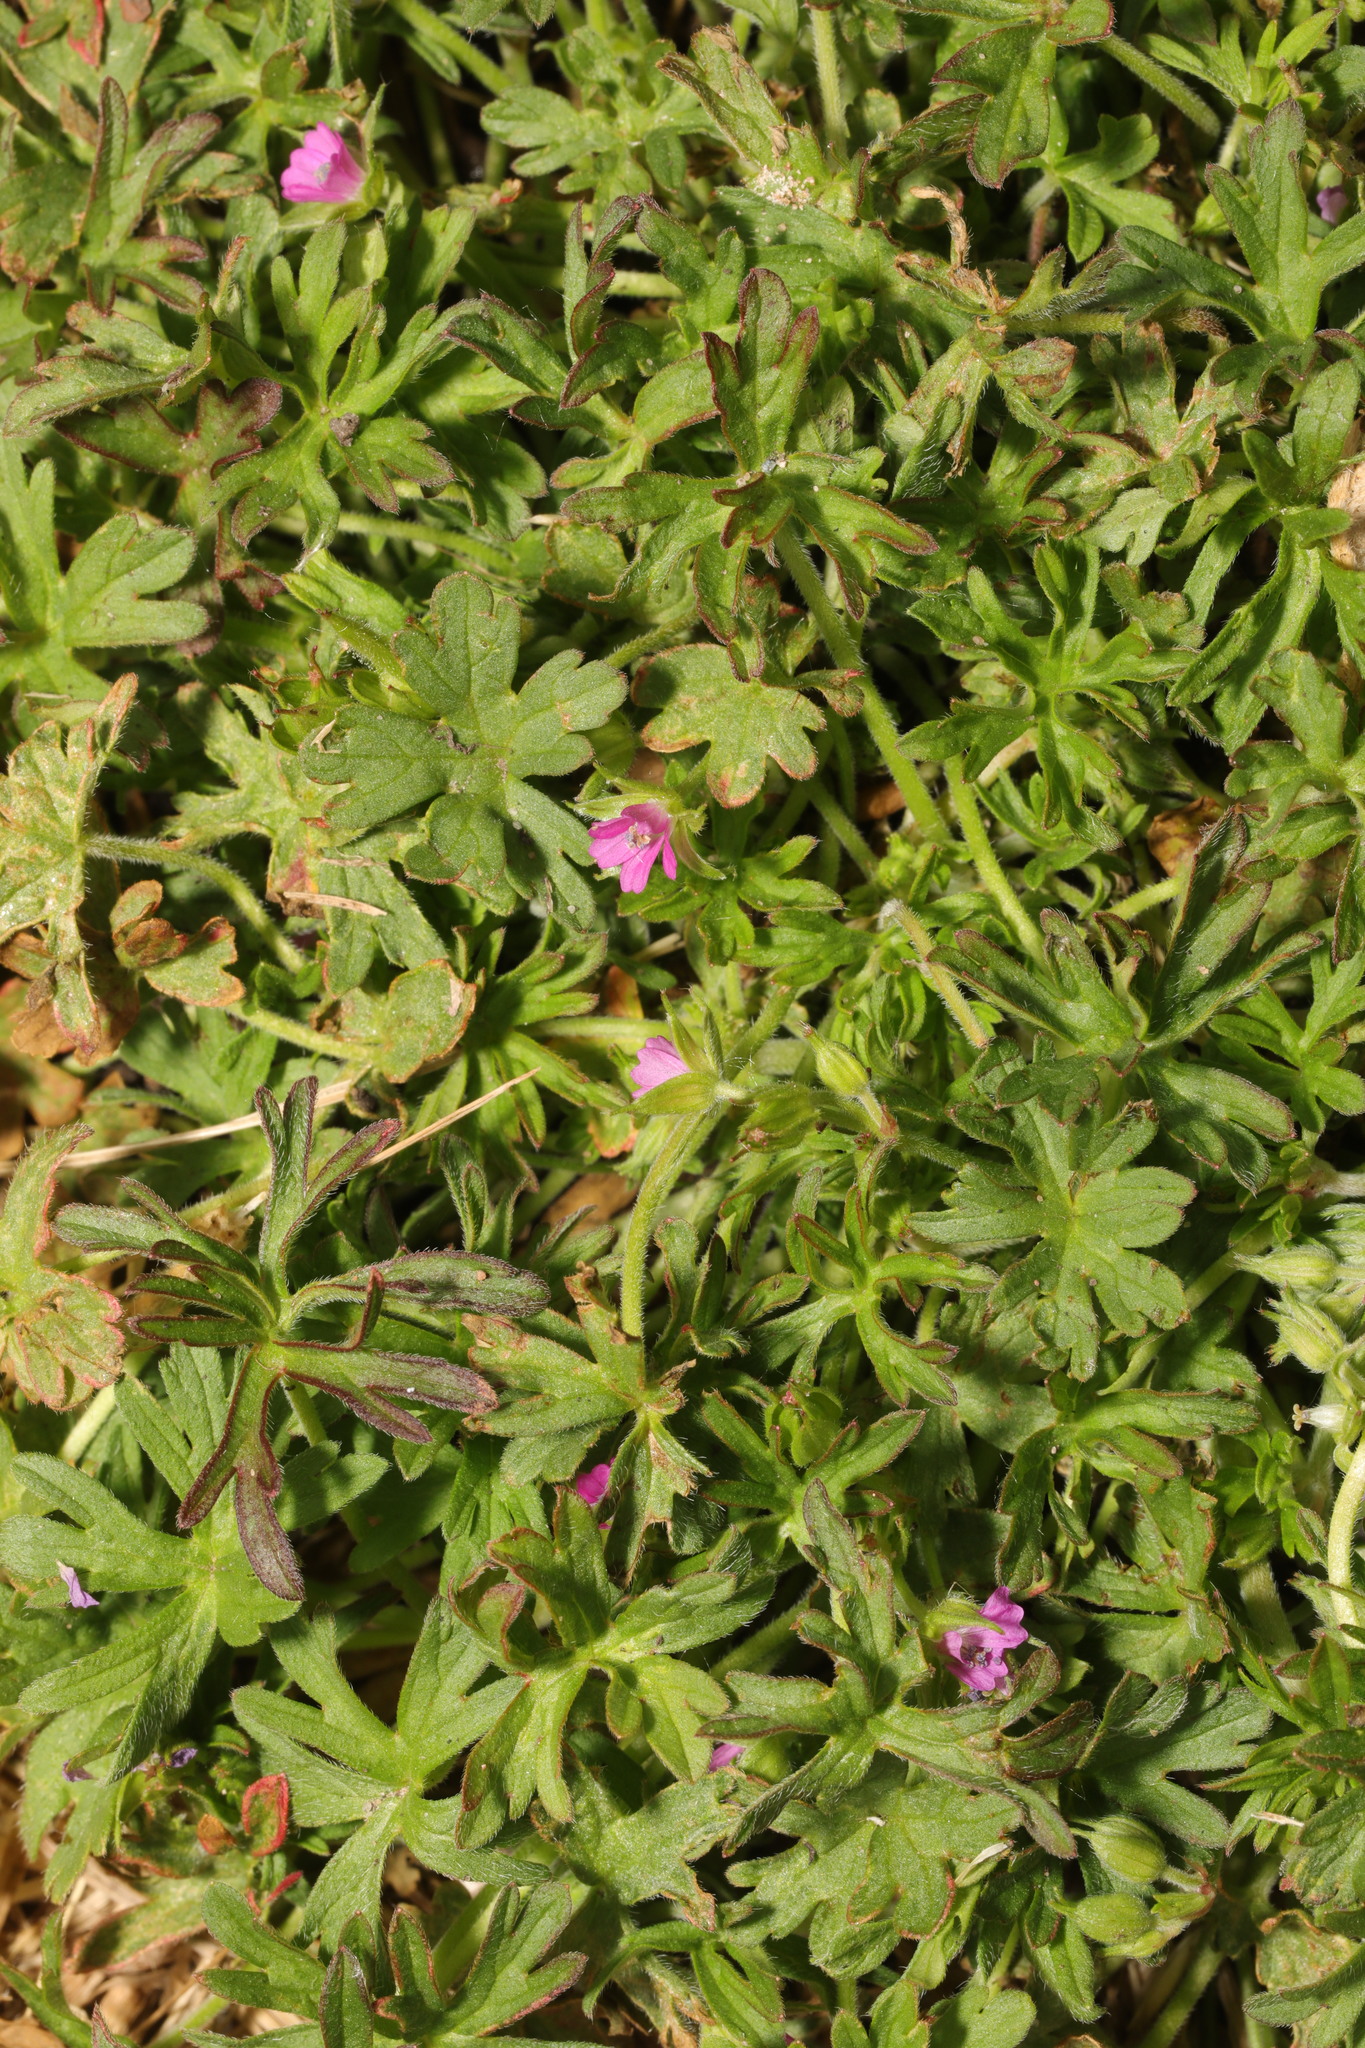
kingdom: Plantae
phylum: Tracheophyta
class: Magnoliopsida
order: Geraniales
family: Geraniaceae
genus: Geranium
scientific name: Geranium dissectum
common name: Cut-leaved crane's-bill
